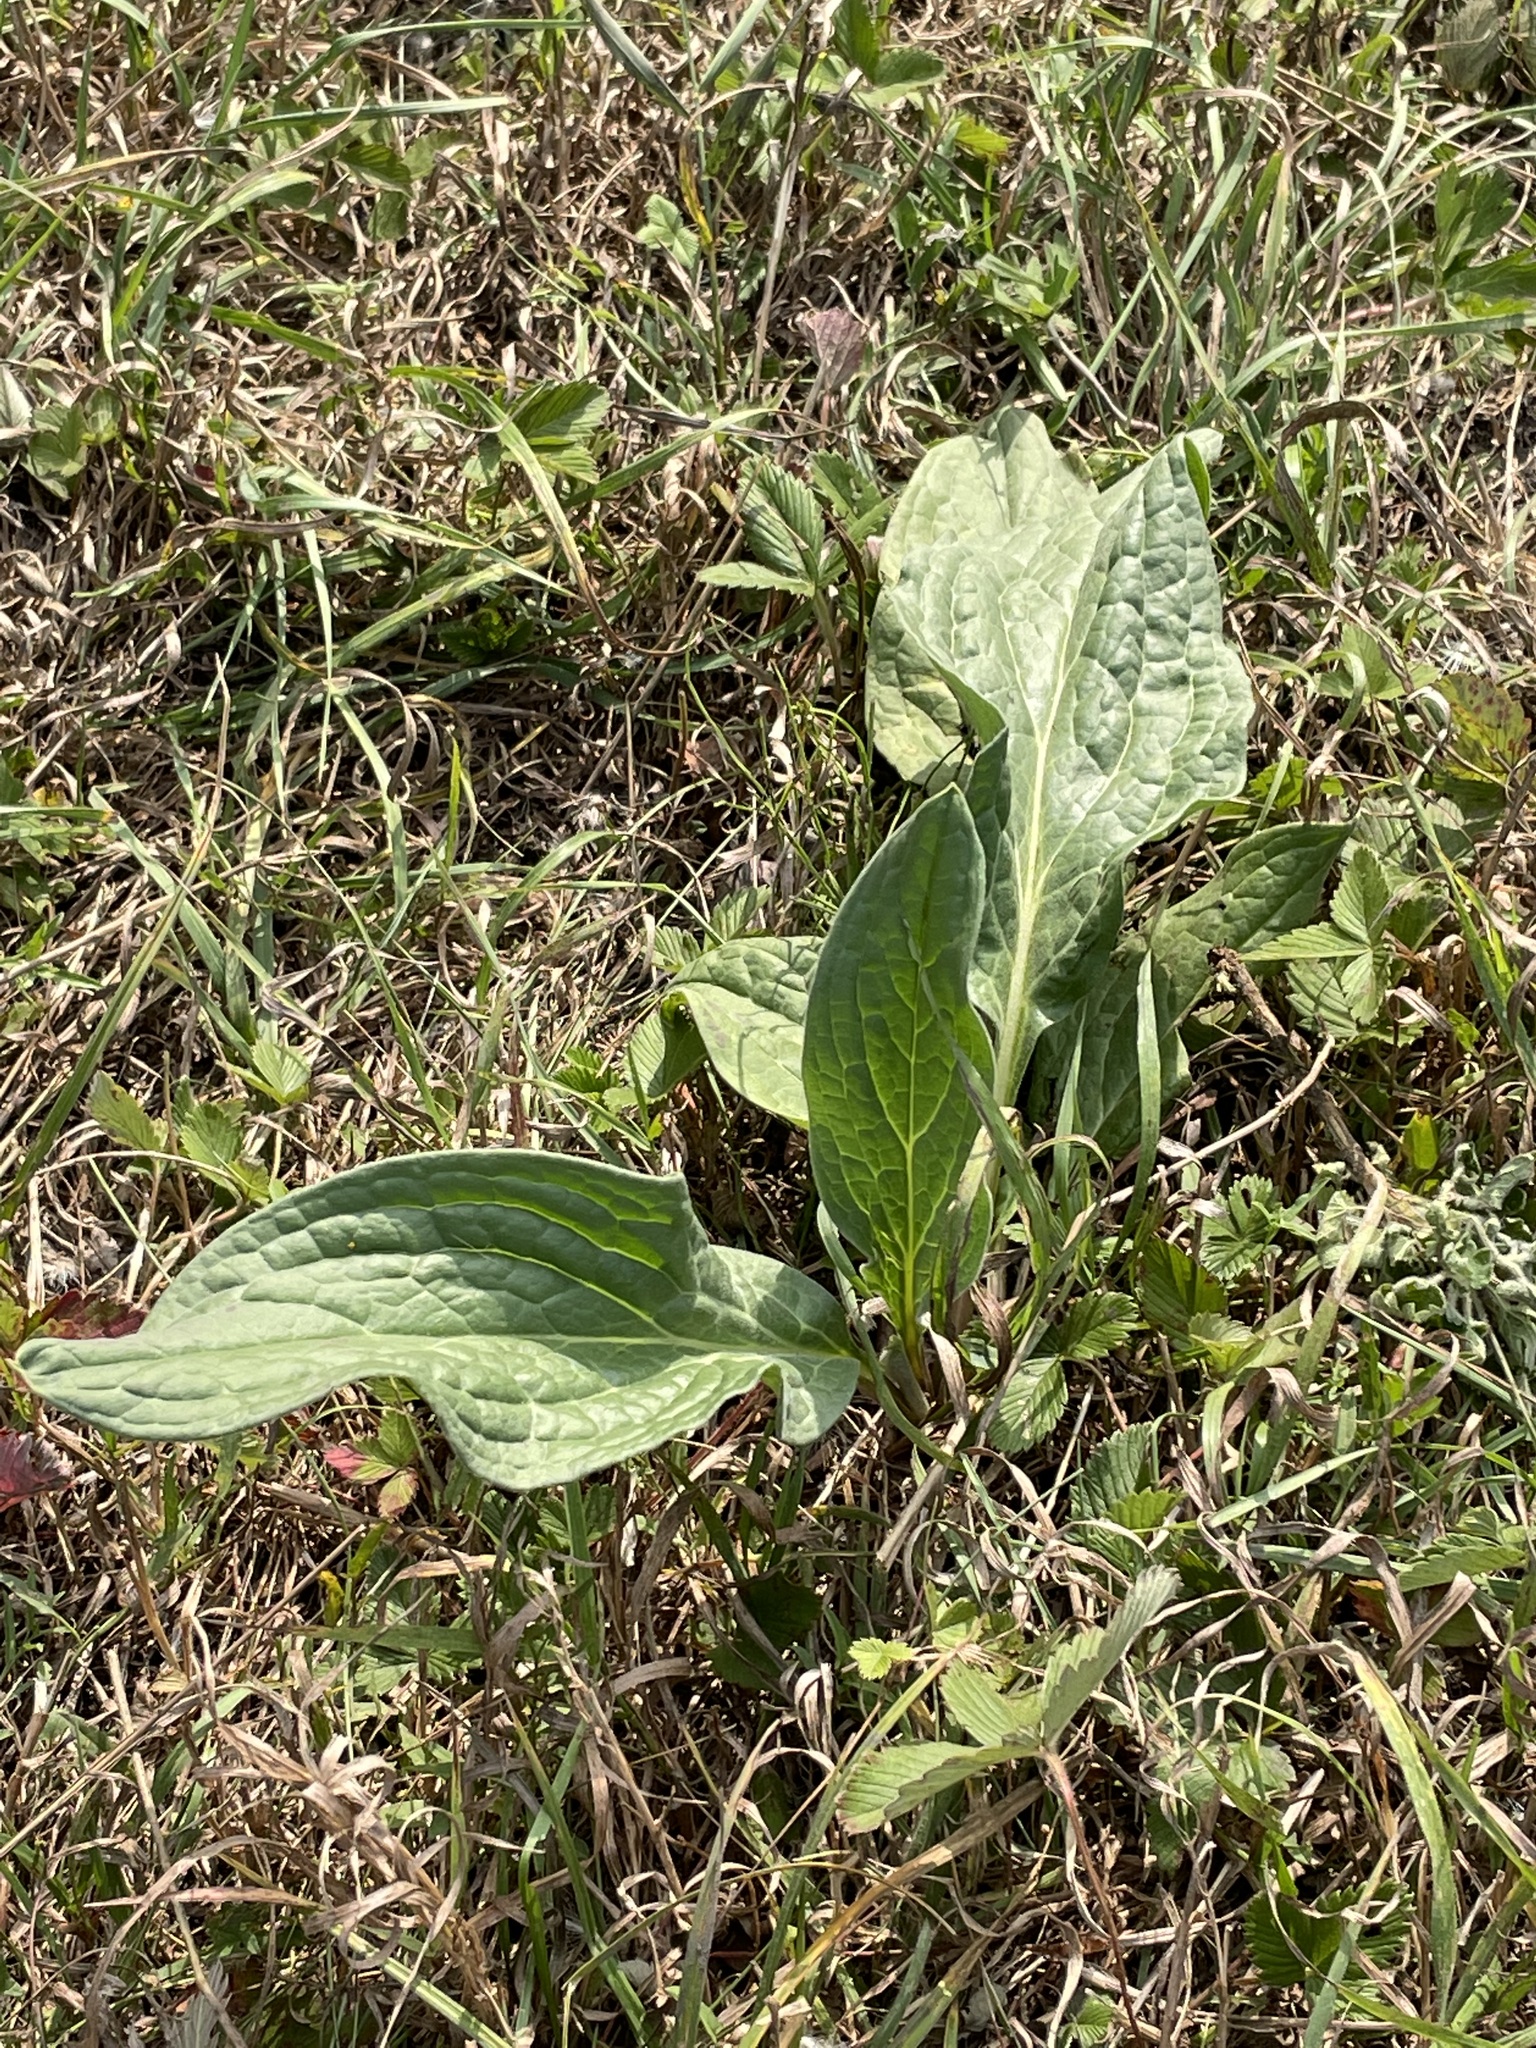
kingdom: Plantae
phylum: Tracheophyta
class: Magnoliopsida
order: Boraginales
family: Boraginaceae
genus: Cynoglossum
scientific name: Cynoglossum officinale
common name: Hound's-tongue
